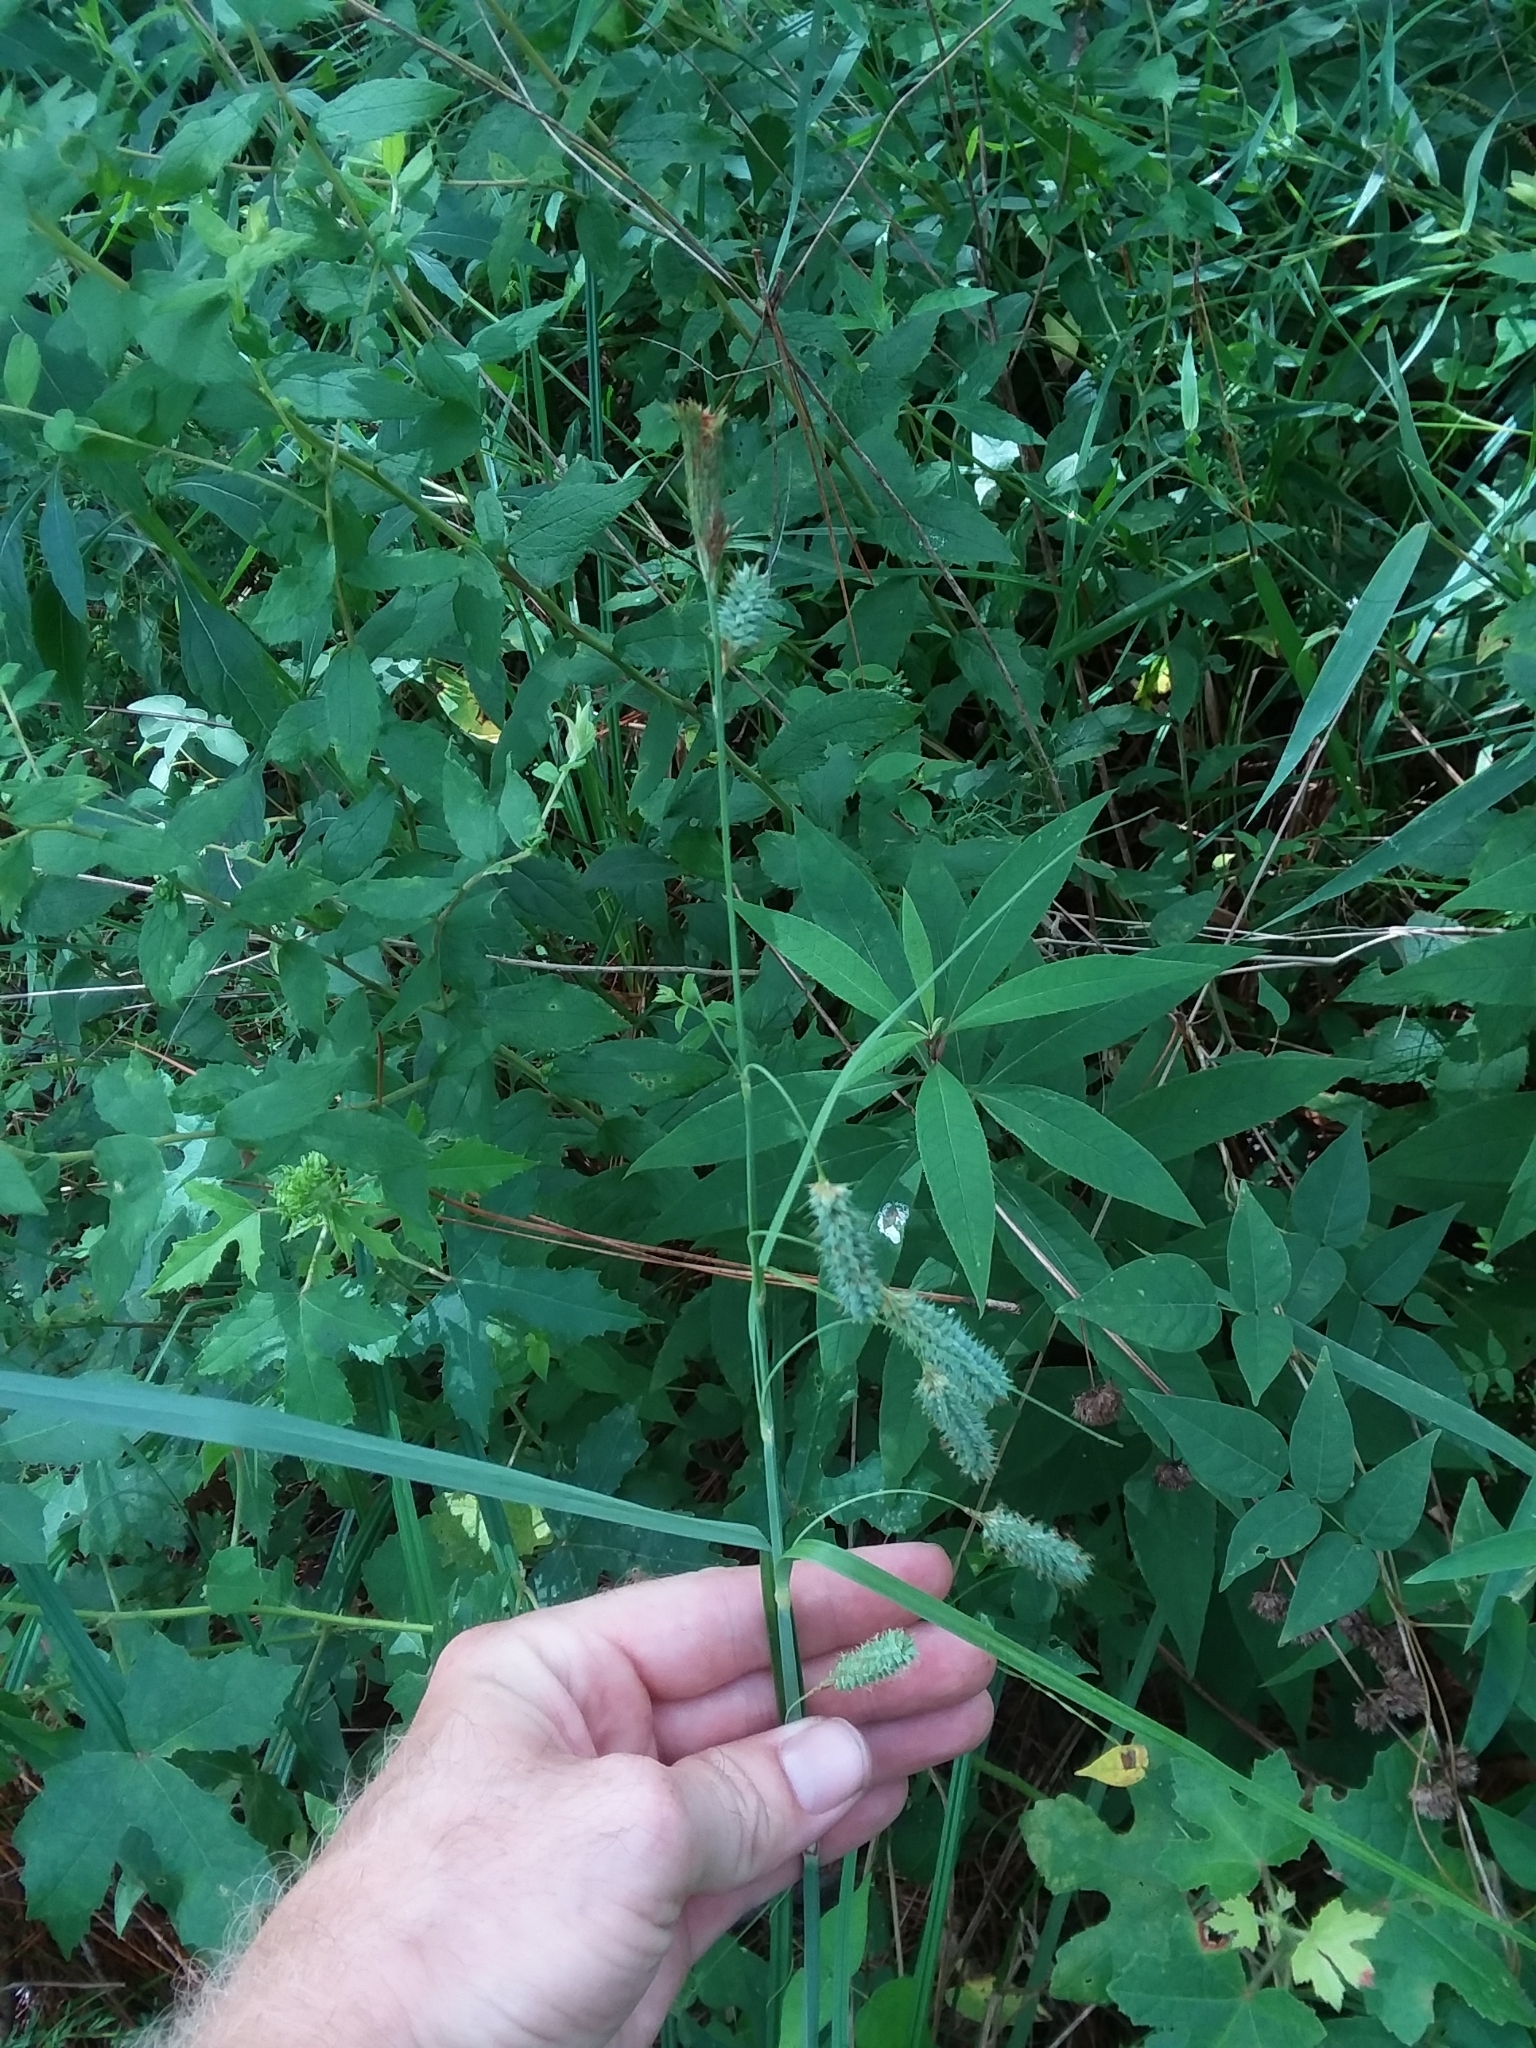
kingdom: Plantae
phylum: Tracheophyta
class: Liliopsida
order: Poales
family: Cyperaceae
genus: Carex
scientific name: Carex glaucescens
